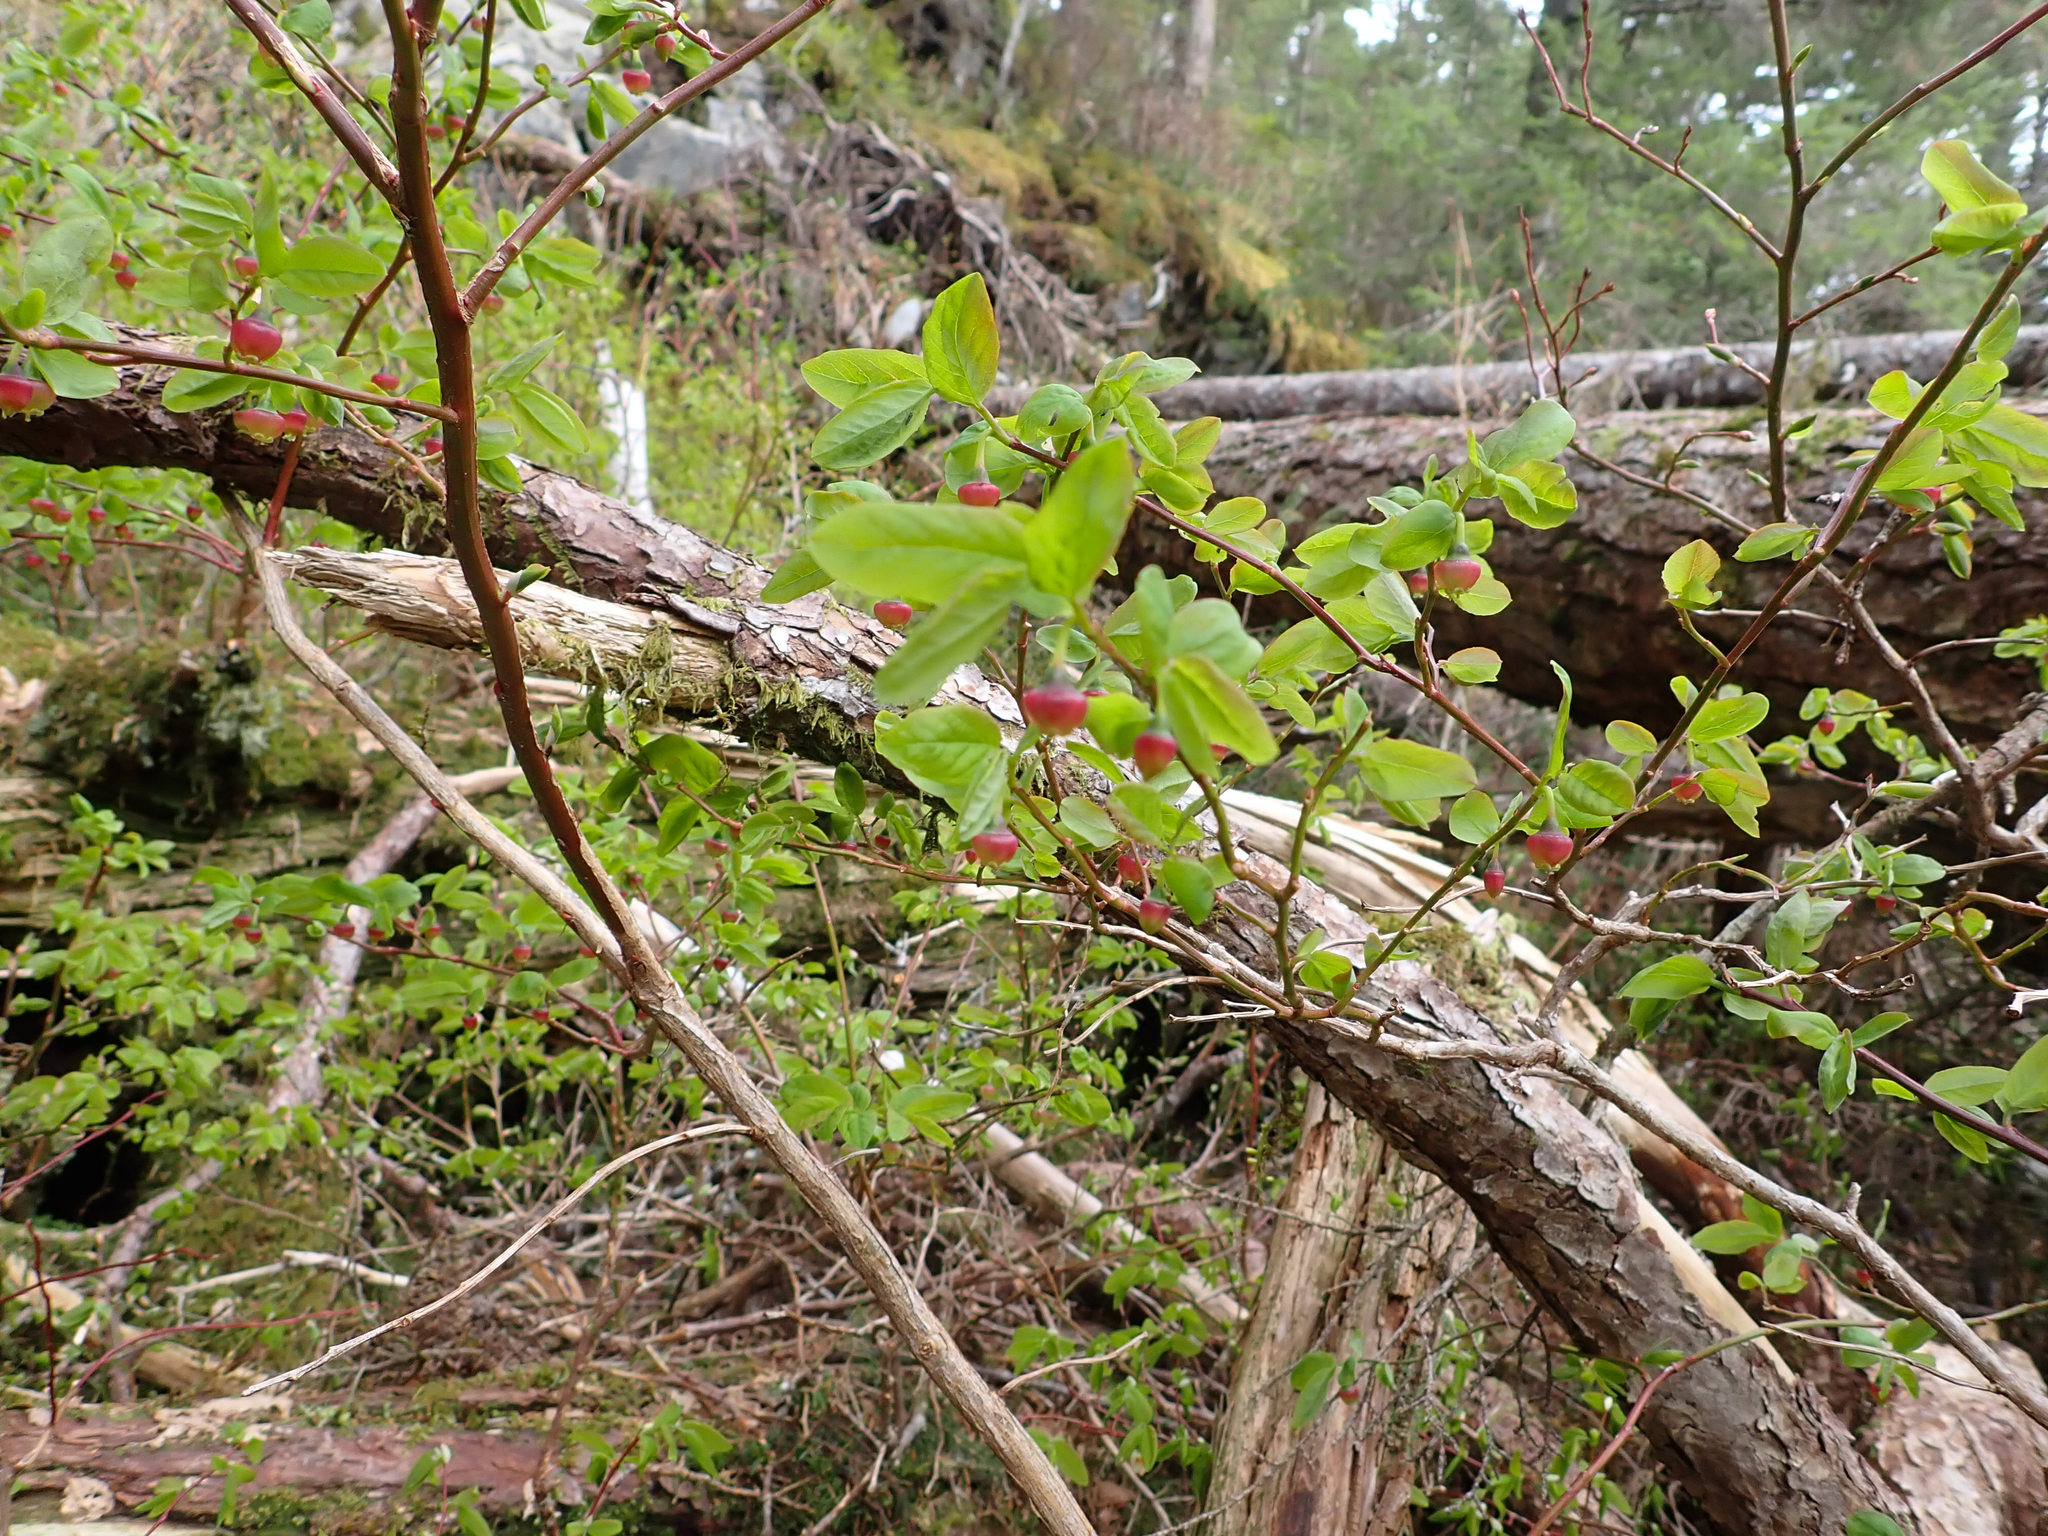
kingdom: Plantae
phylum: Tracheophyta
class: Magnoliopsida
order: Ericales
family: Ericaceae
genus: Vaccinium
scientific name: Vaccinium ovalifolium
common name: Early blueberry
